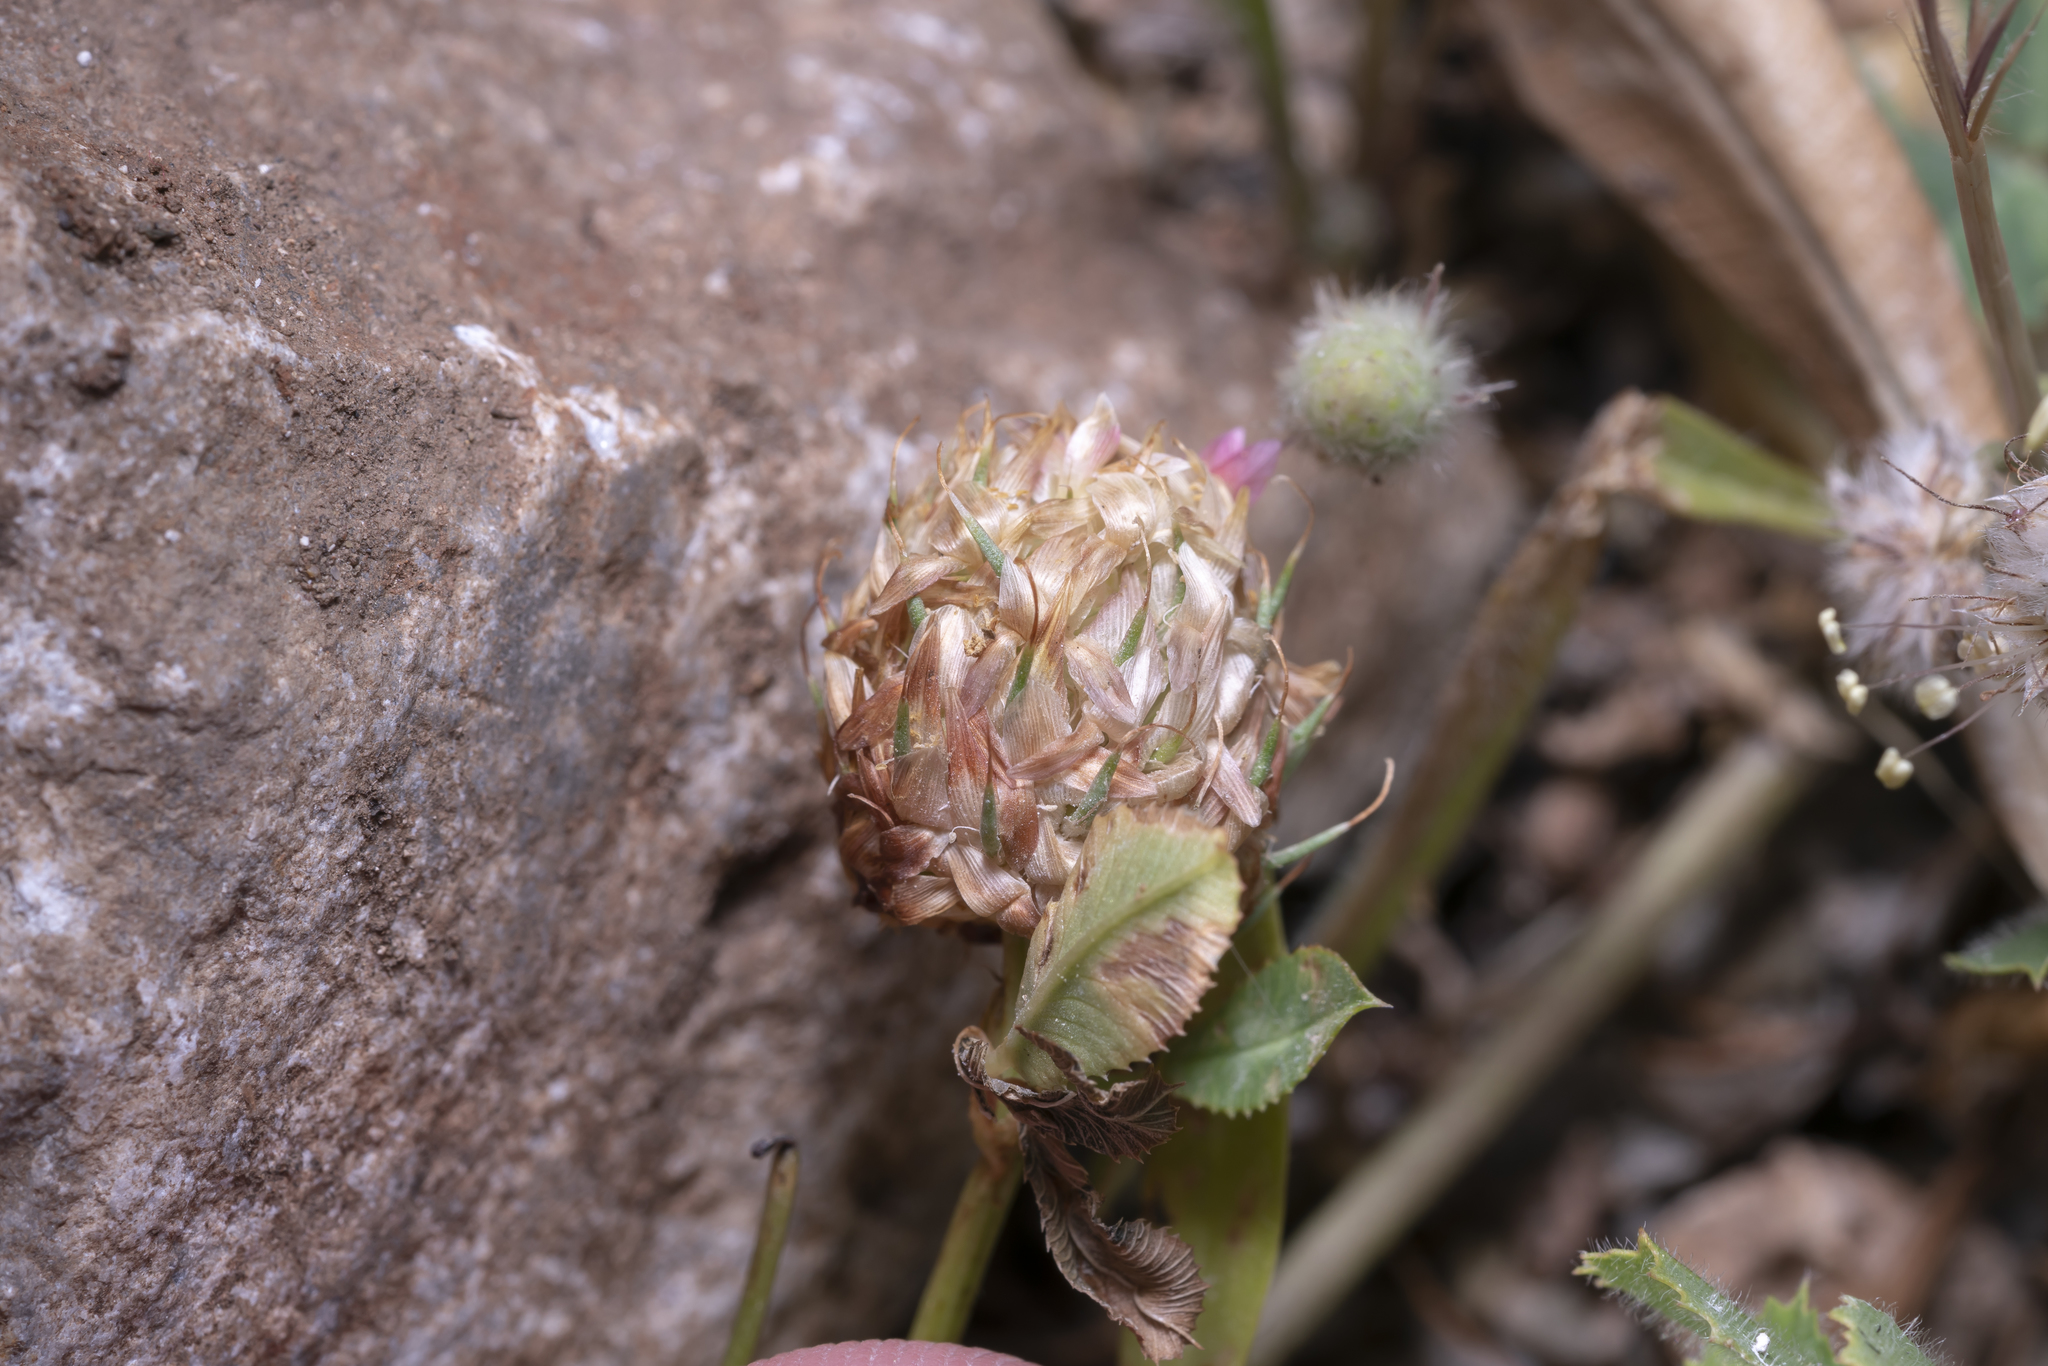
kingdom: Plantae
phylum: Tracheophyta
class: Magnoliopsida
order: Fabales
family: Fabaceae
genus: Trifolium
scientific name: Trifolium argutum
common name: Sharp-tooth clover
